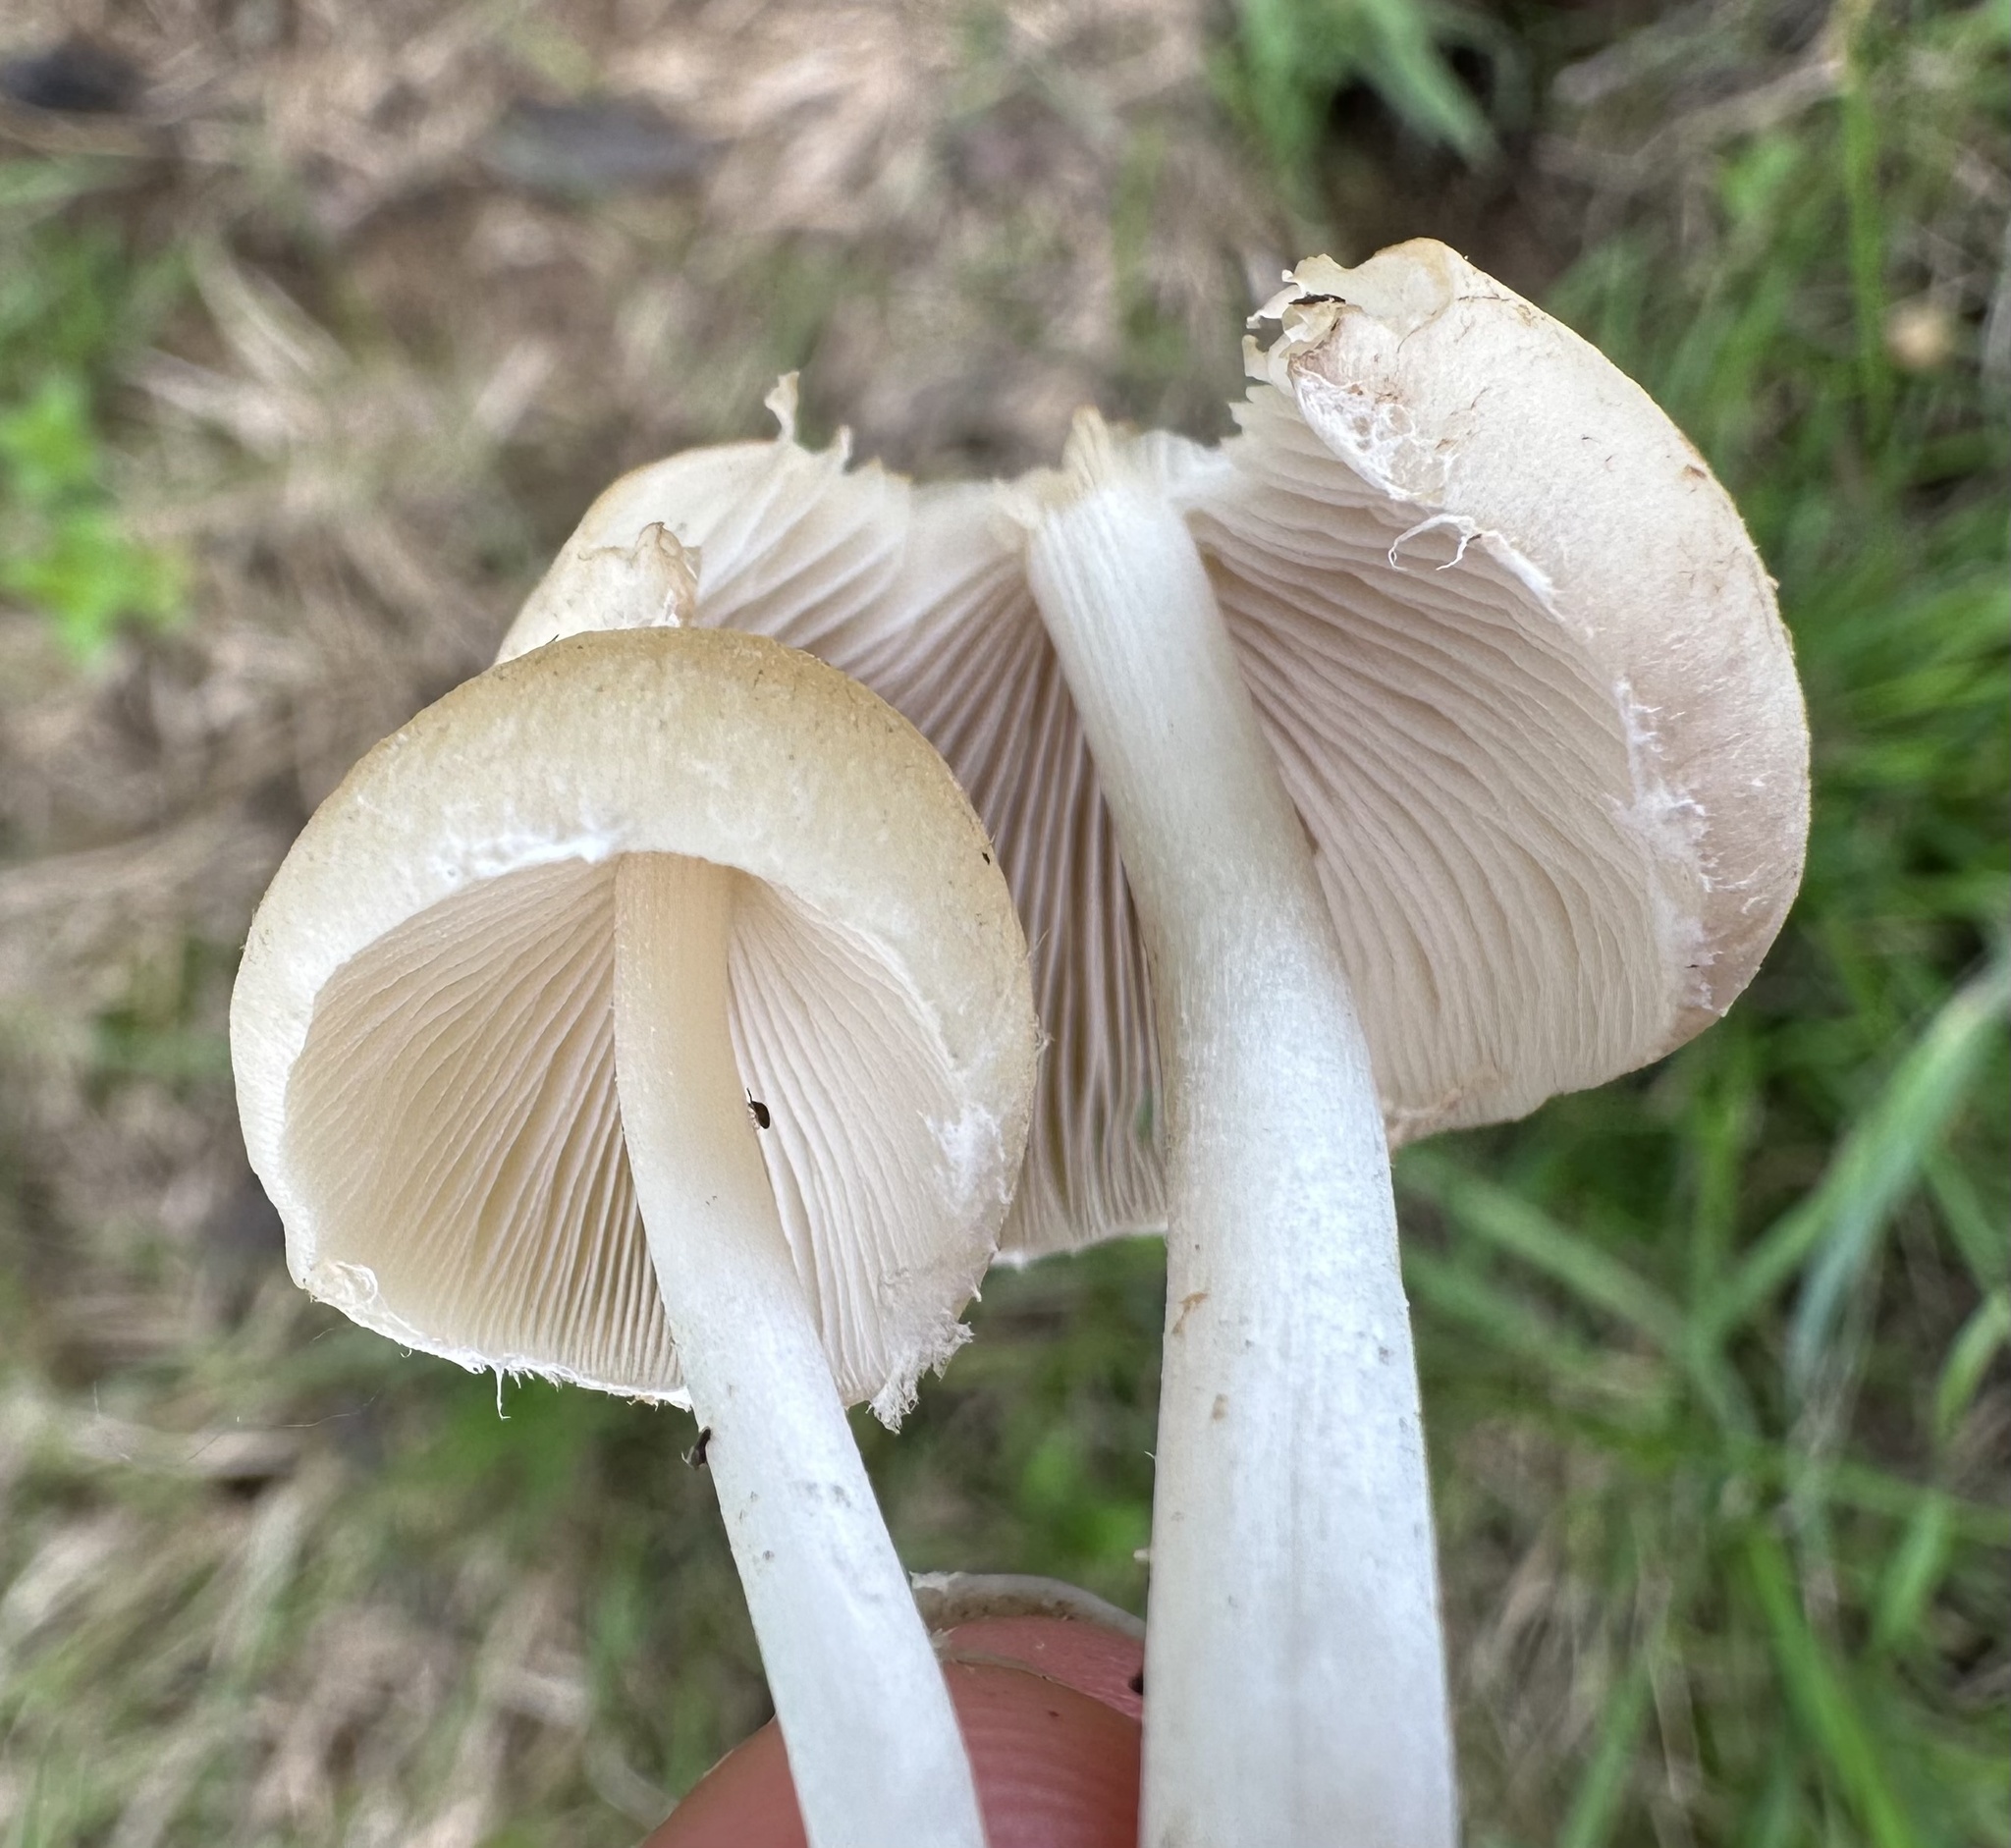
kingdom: Fungi
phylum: Basidiomycota
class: Agaricomycetes
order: Agaricales
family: Psathyrellaceae
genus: Candolleomyces
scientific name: Candolleomyces candolleanus
